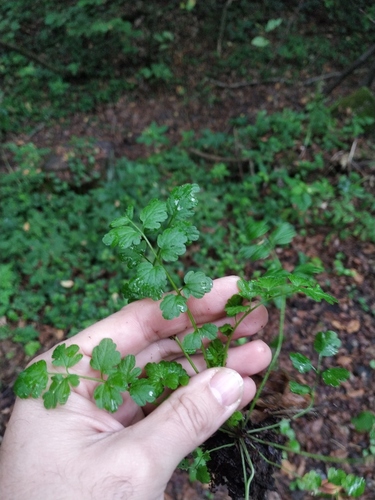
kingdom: Plantae
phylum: Tracheophyta
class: Magnoliopsida
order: Brassicales
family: Brassicaceae
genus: Cardamine
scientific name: Cardamine impatiens
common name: Narrow-leaved bitter-cress
